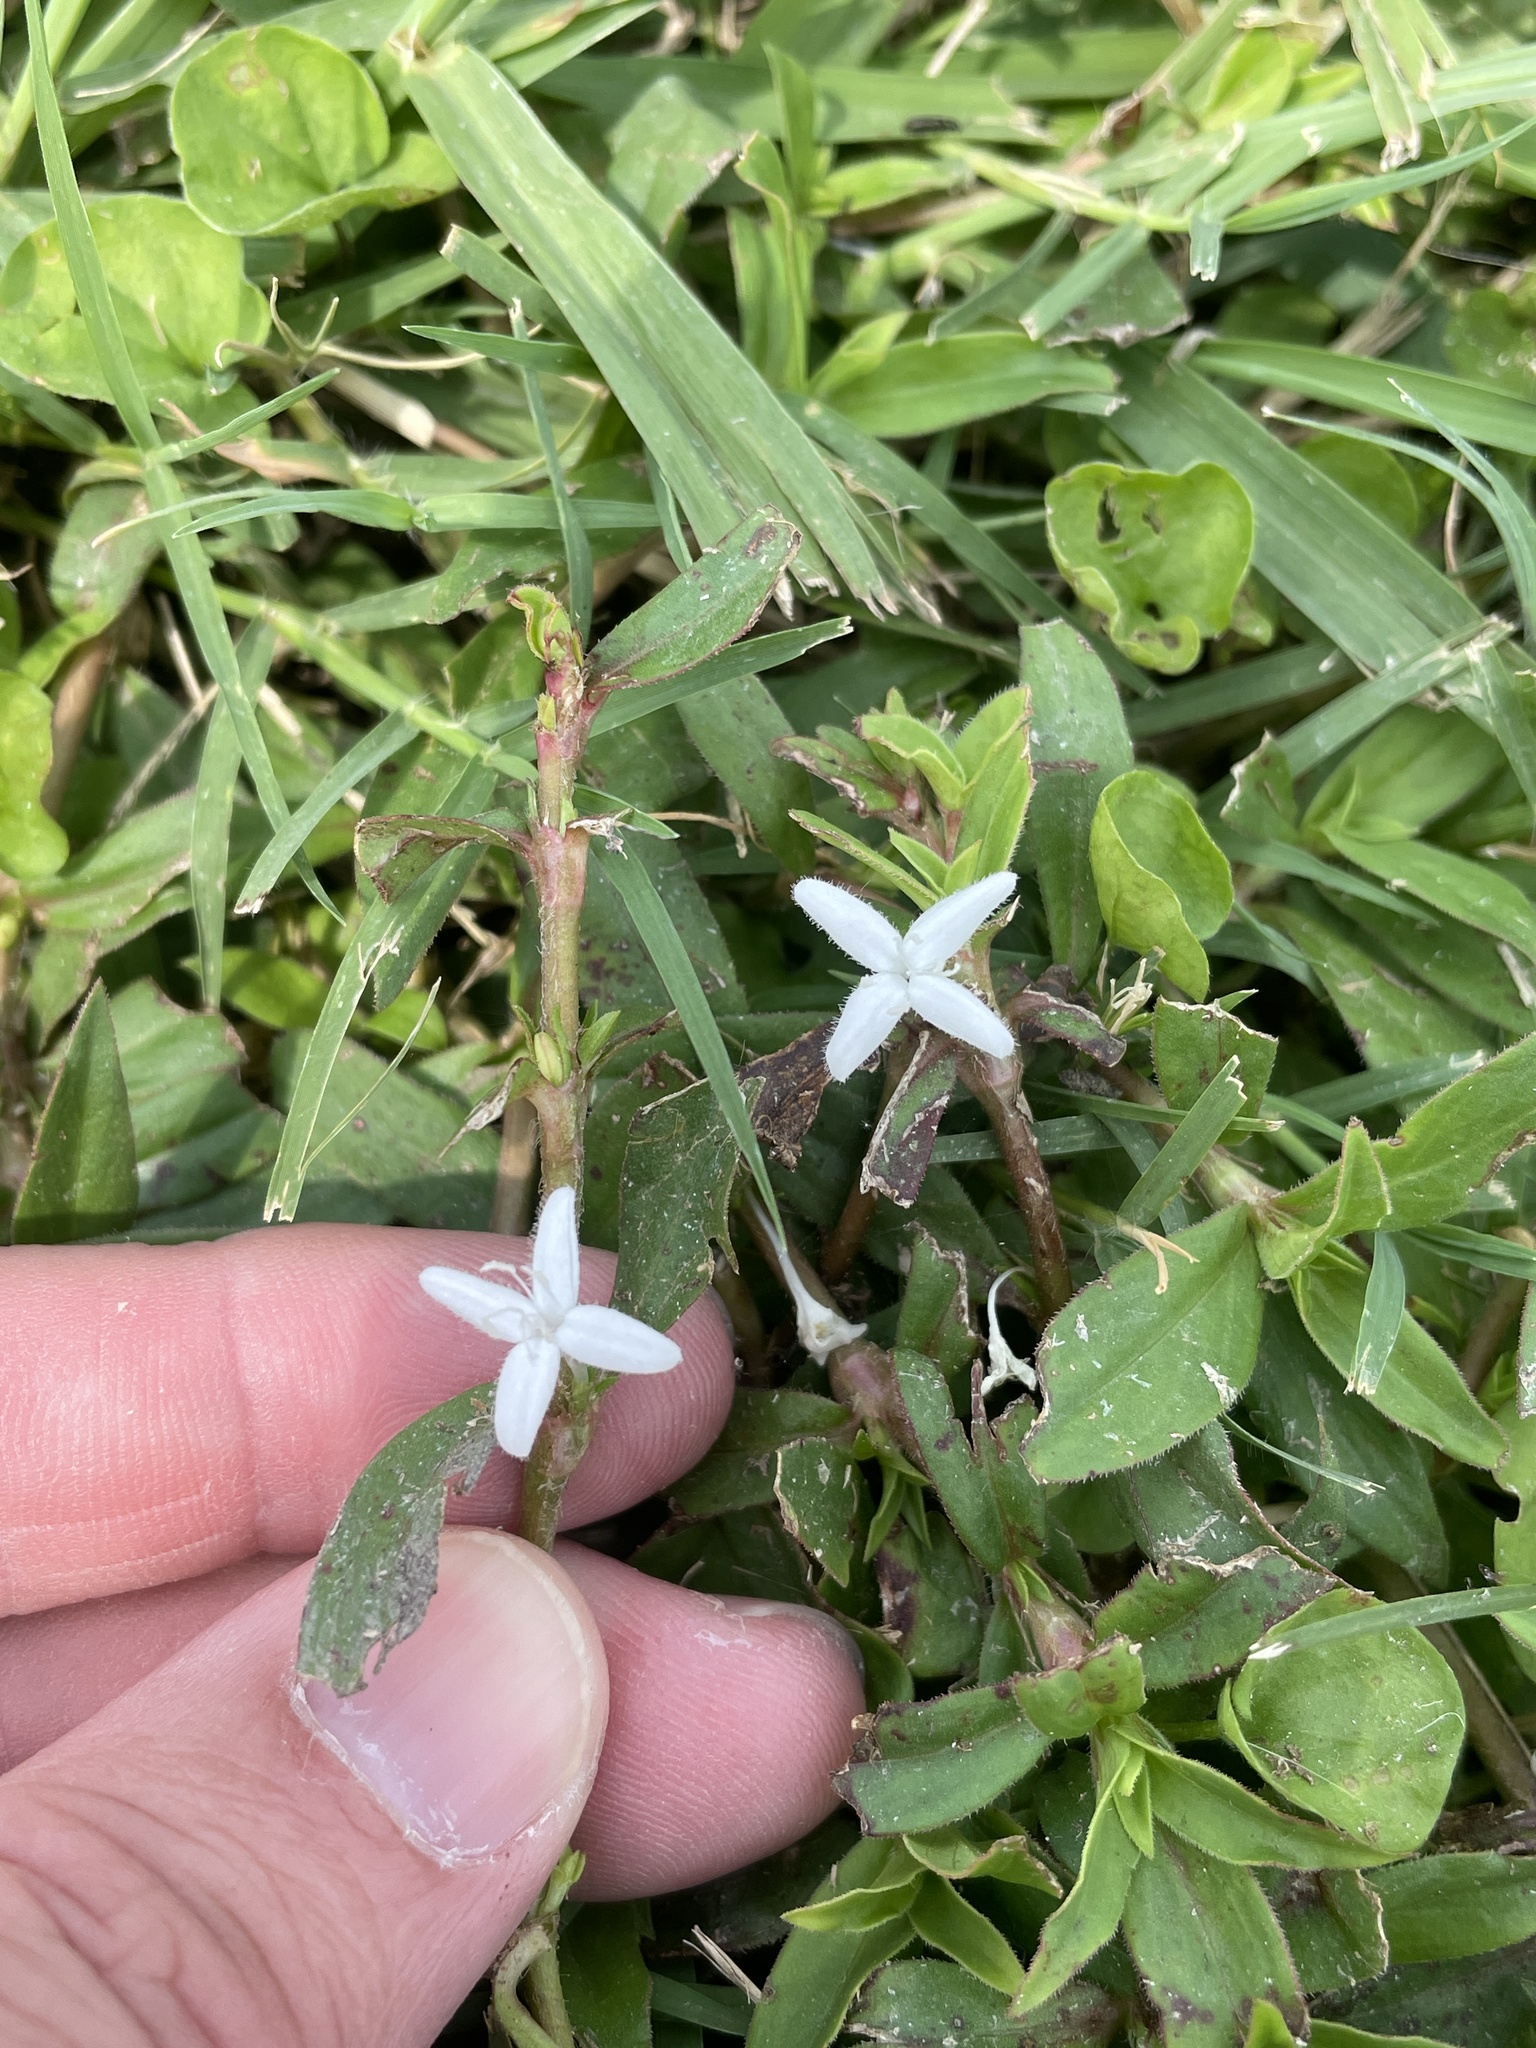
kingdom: Plantae
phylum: Tracheophyta
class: Magnoliopsida
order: Gentianales
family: Rubiaceae
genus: Diodia
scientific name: Diodia virginiana
